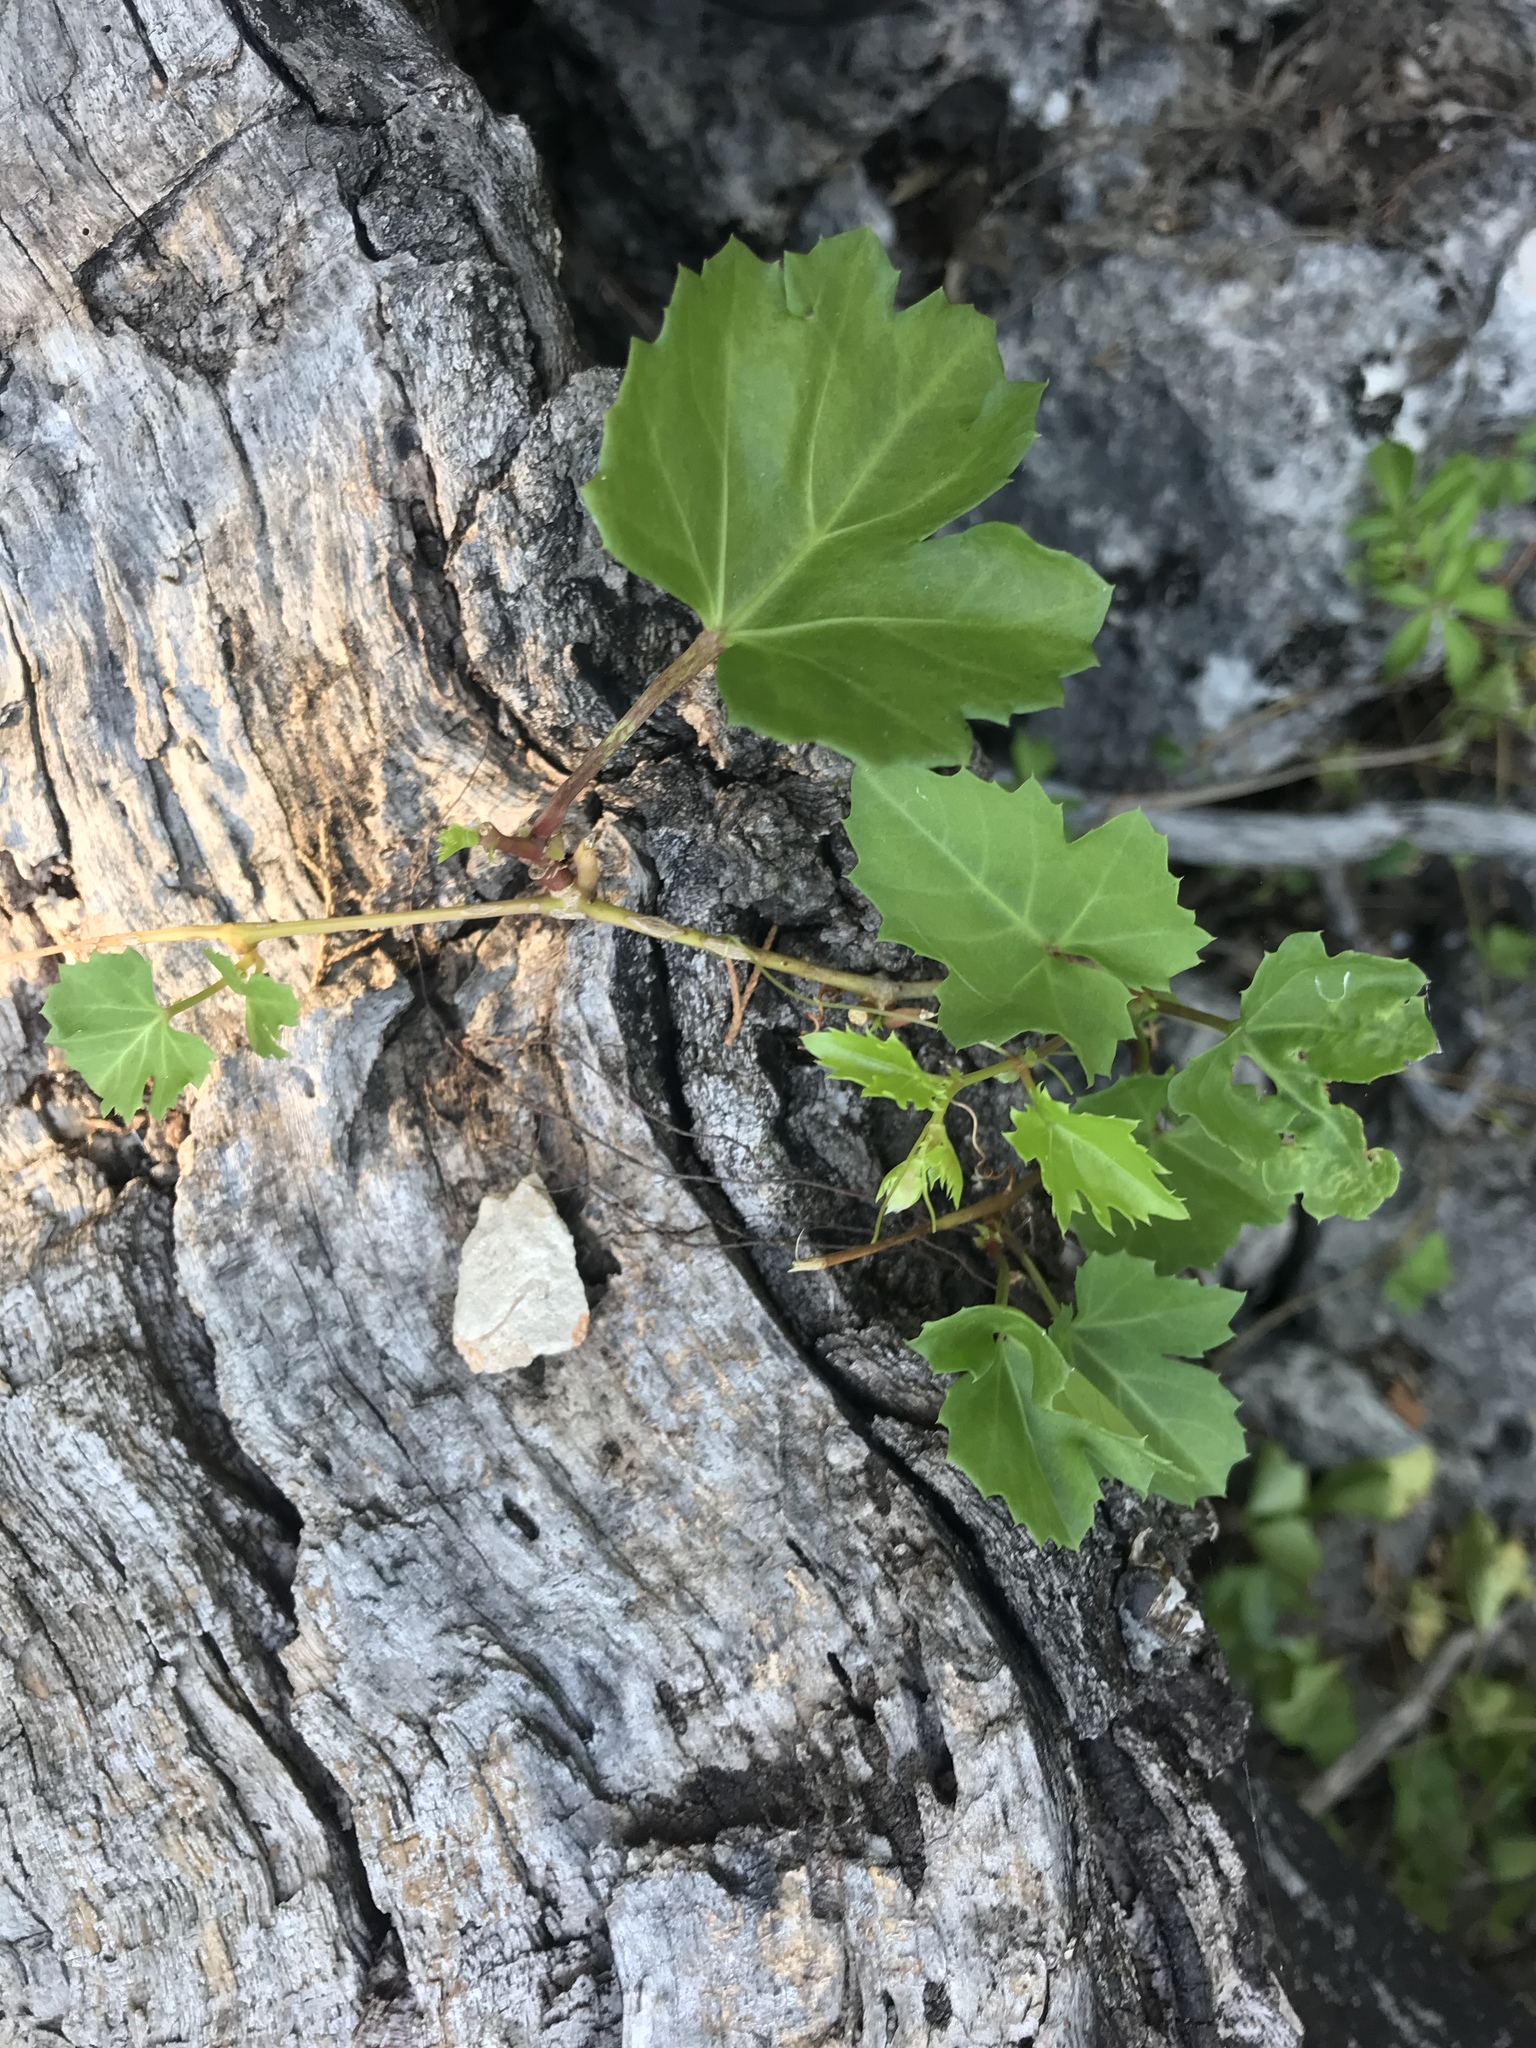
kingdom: Plantae
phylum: Tracheophyta
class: Magnoliopsida
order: Vitales
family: Vitaceae
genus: Cissus
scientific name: Cissus trifoliata
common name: Vine-sorrel
